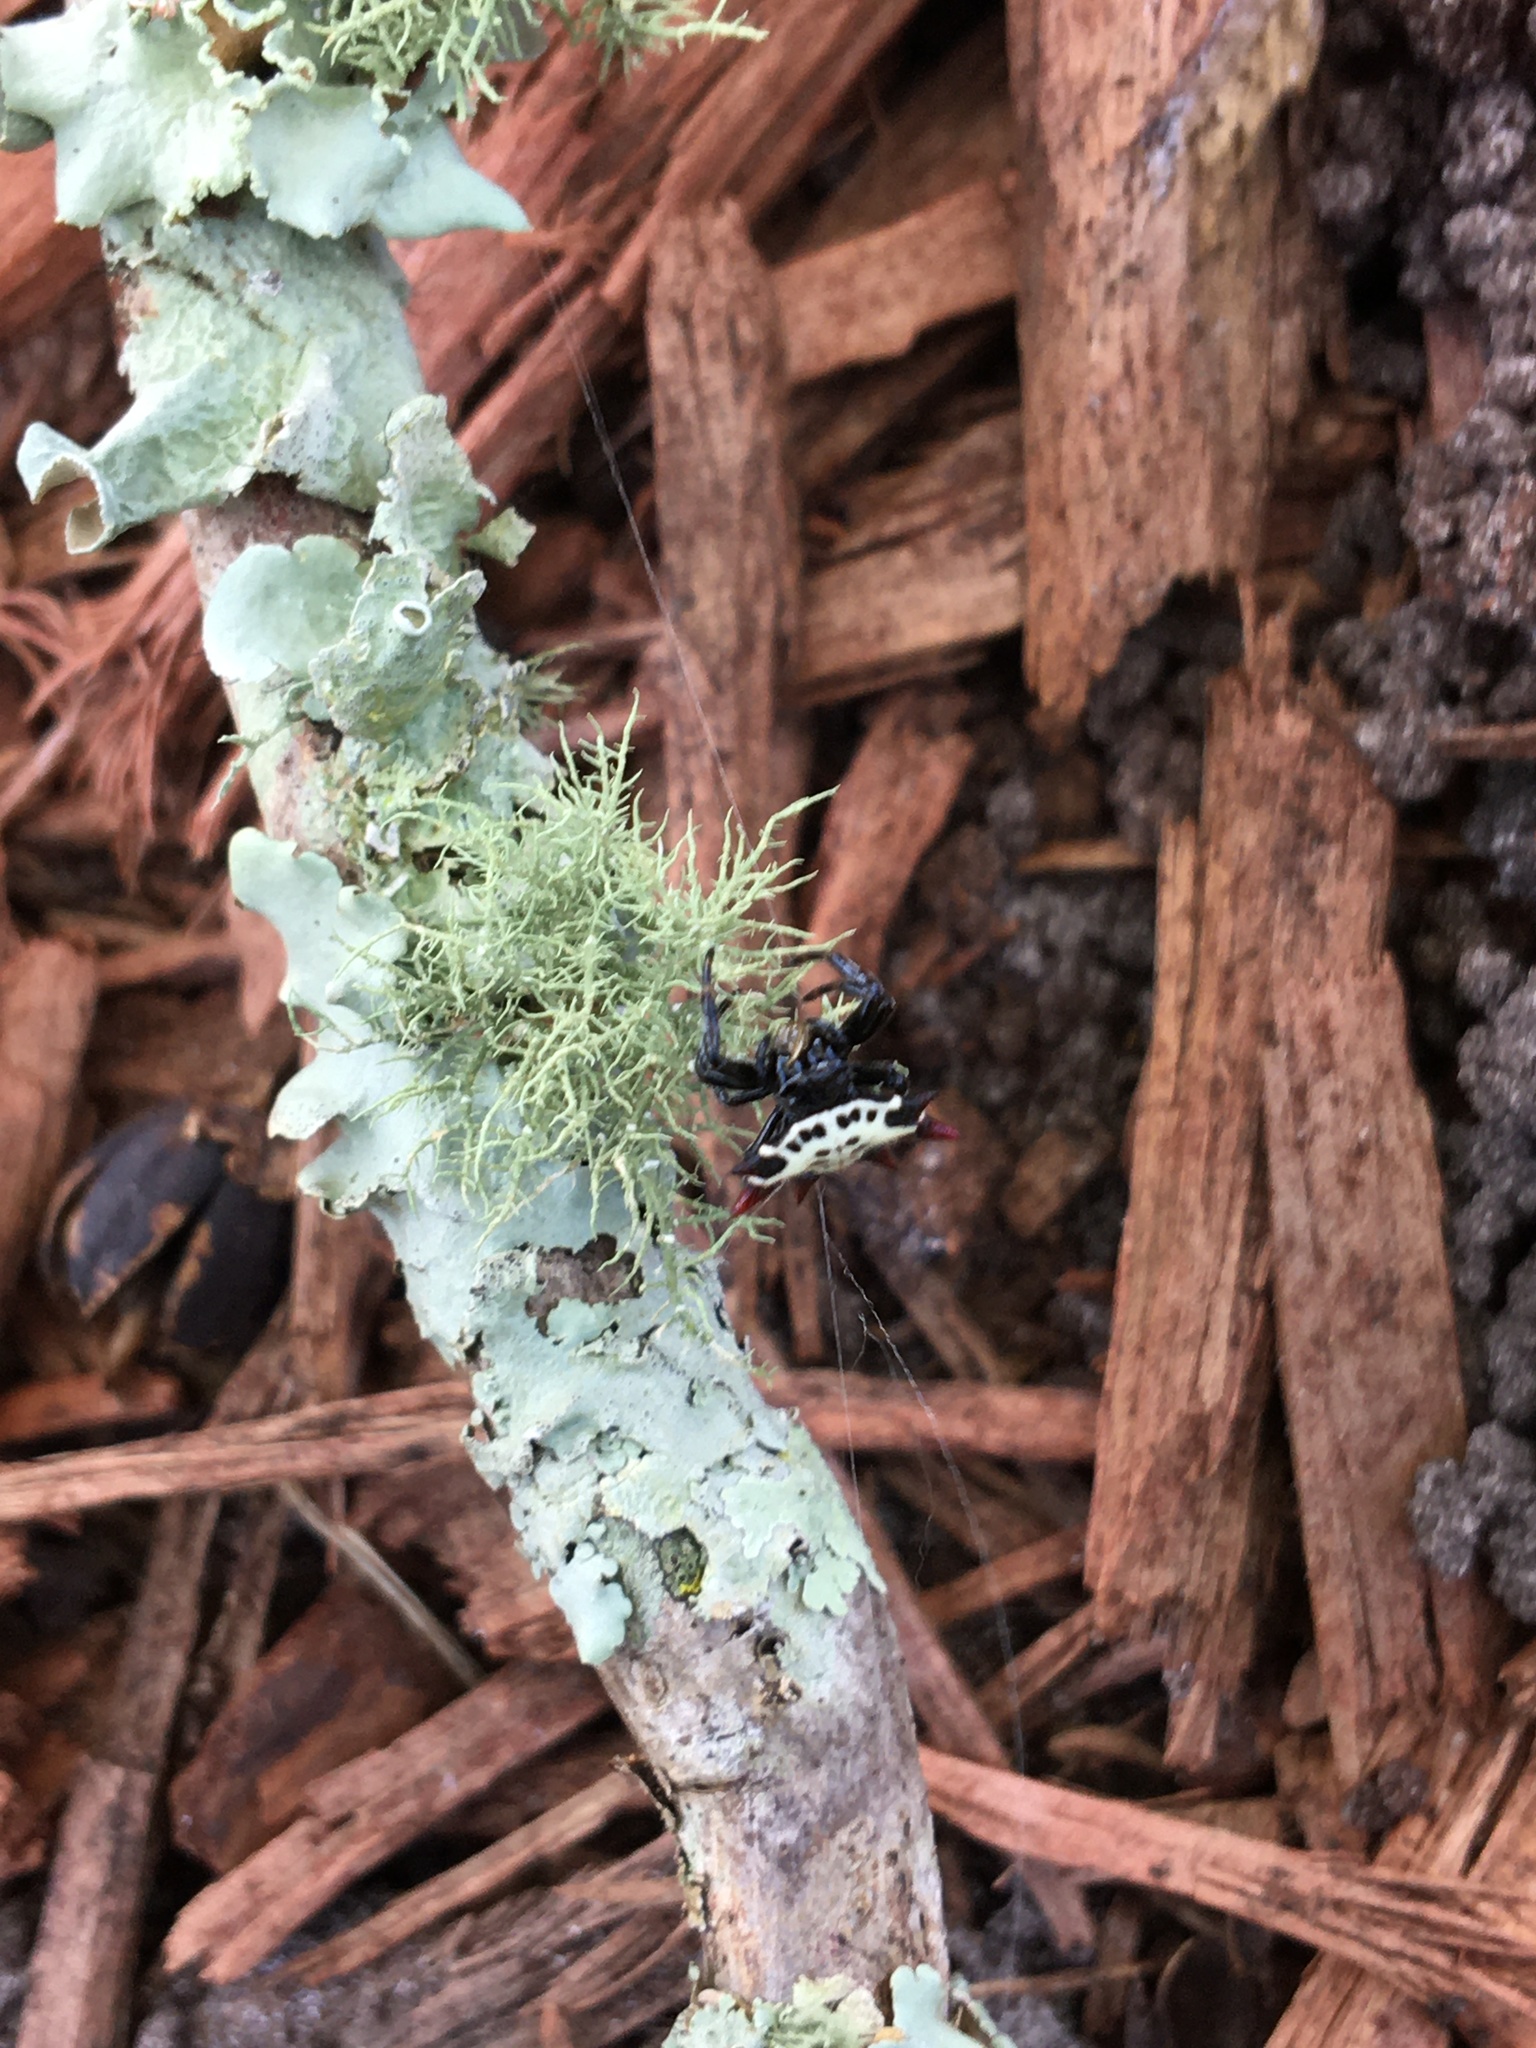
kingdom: Animalia
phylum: Arthropoda
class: Arachnida
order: Araneae
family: Araneidae
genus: Gasteracantha
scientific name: Gasteracantha cancriformis
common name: Orb weavers
